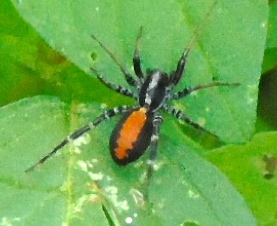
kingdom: Animalia
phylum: Arthropoda
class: Arachnida
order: Araneae
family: Corinnidae
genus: Castianeira
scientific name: Castianeira dorsata
